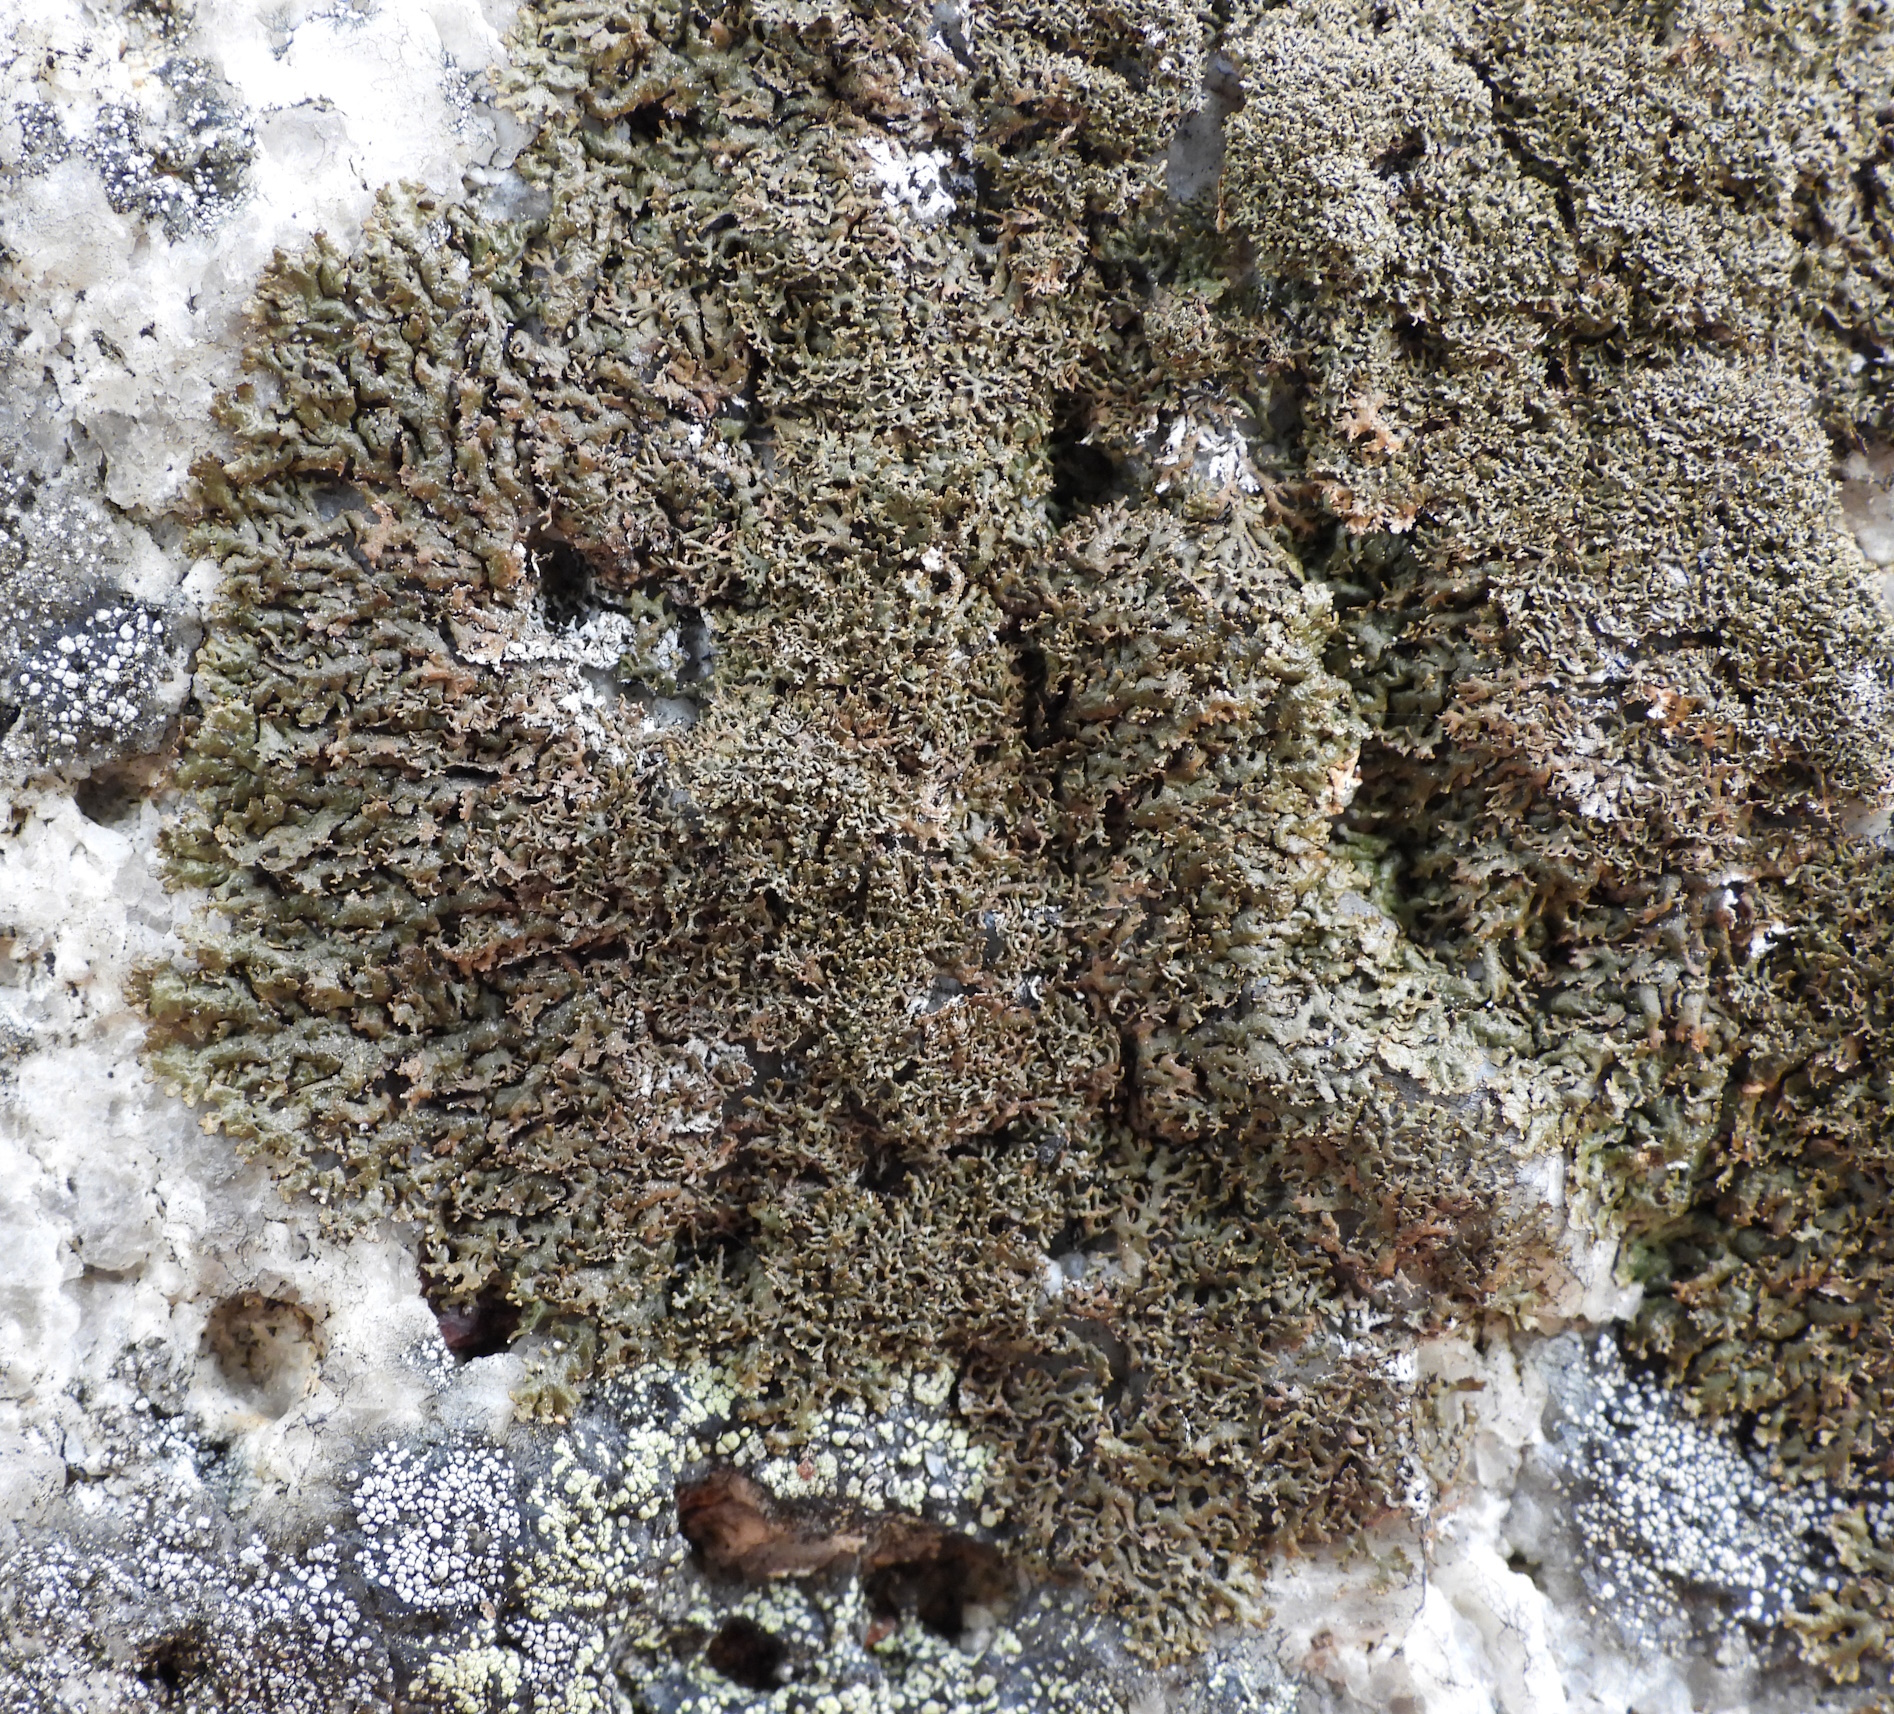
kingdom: Fungi
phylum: Ascomycota
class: Lecanoromycetes
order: Lecanorales
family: Parmeliaceae
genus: Montanelia
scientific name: Montanelia panniformis
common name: Shingled camouflage lichen
